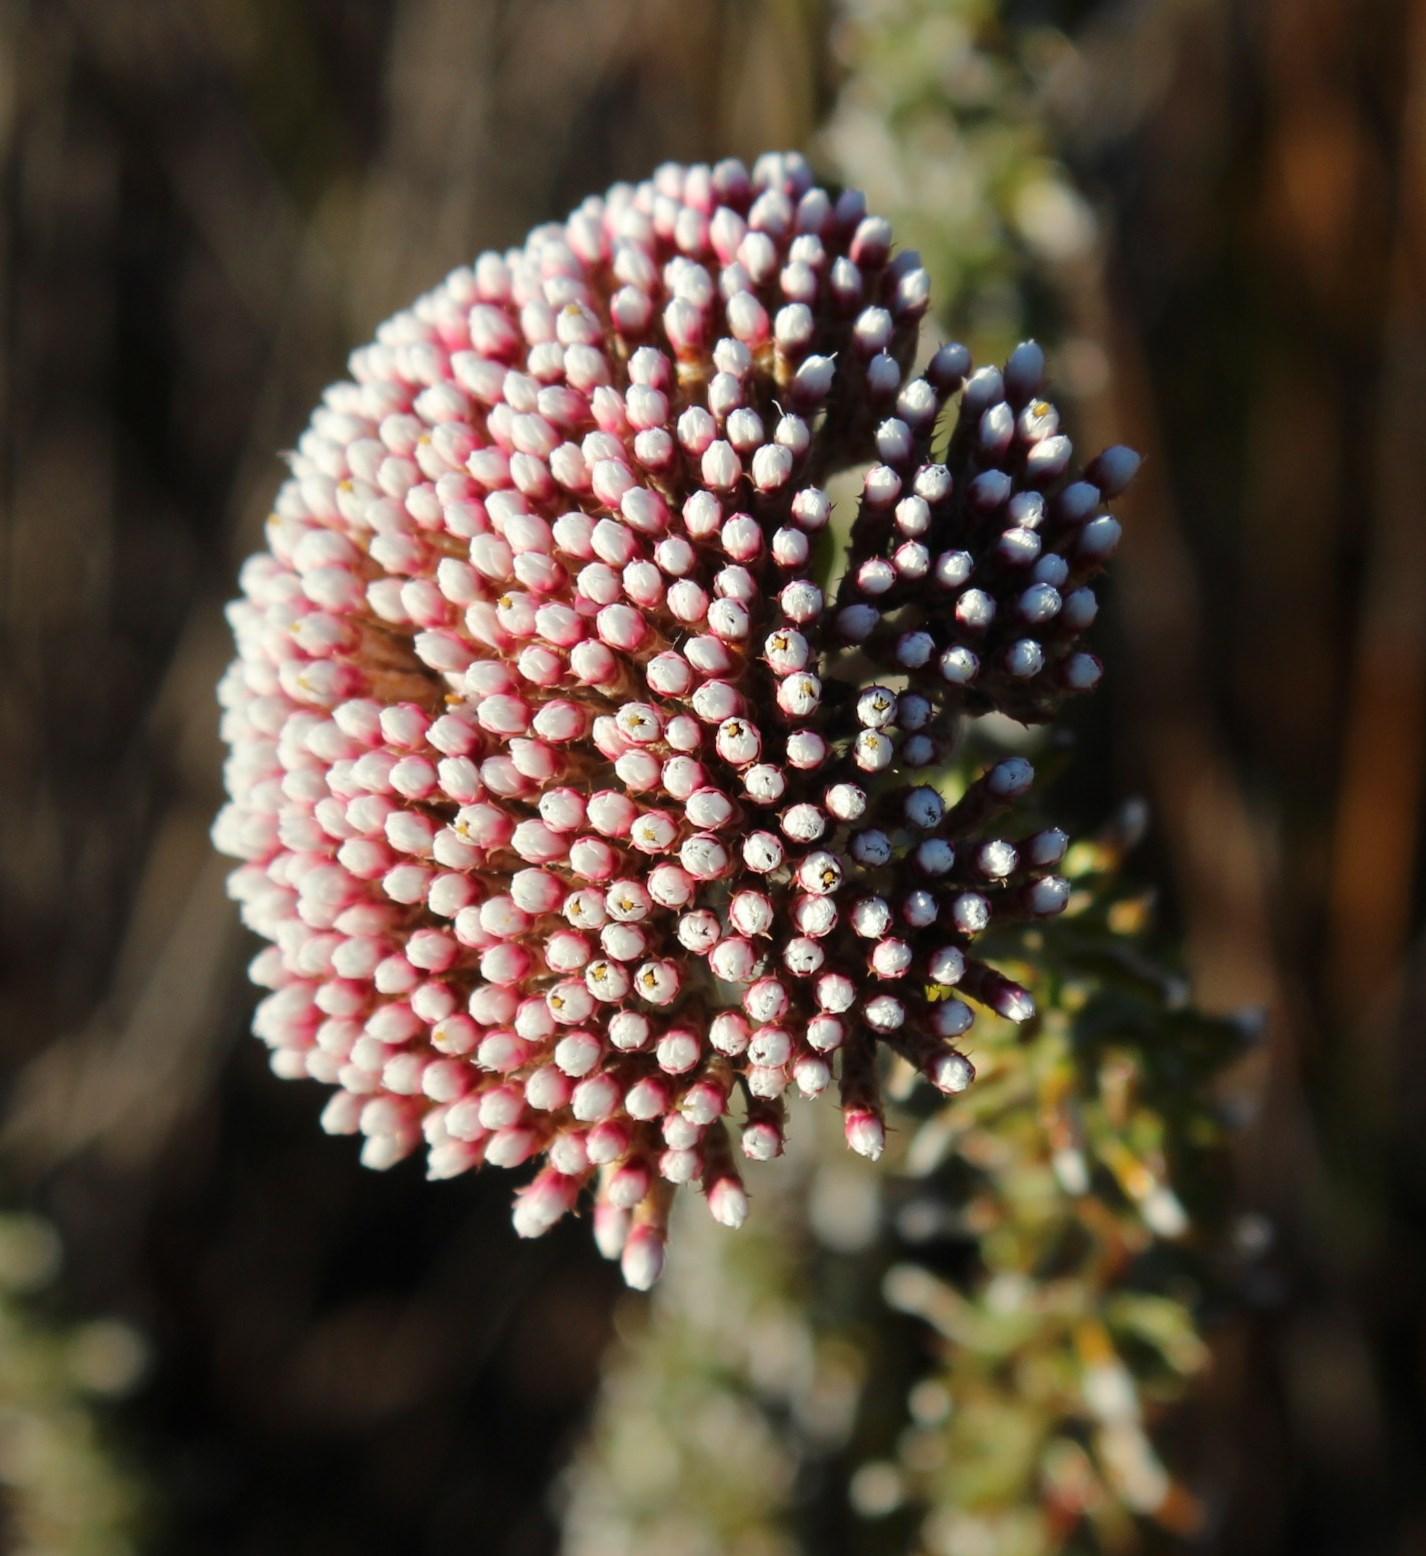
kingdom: Plantae
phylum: Tracheophyta
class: Magnoliopsida
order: Asterales
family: Asteraceae
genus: Metalasia
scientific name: Metalasia densa
